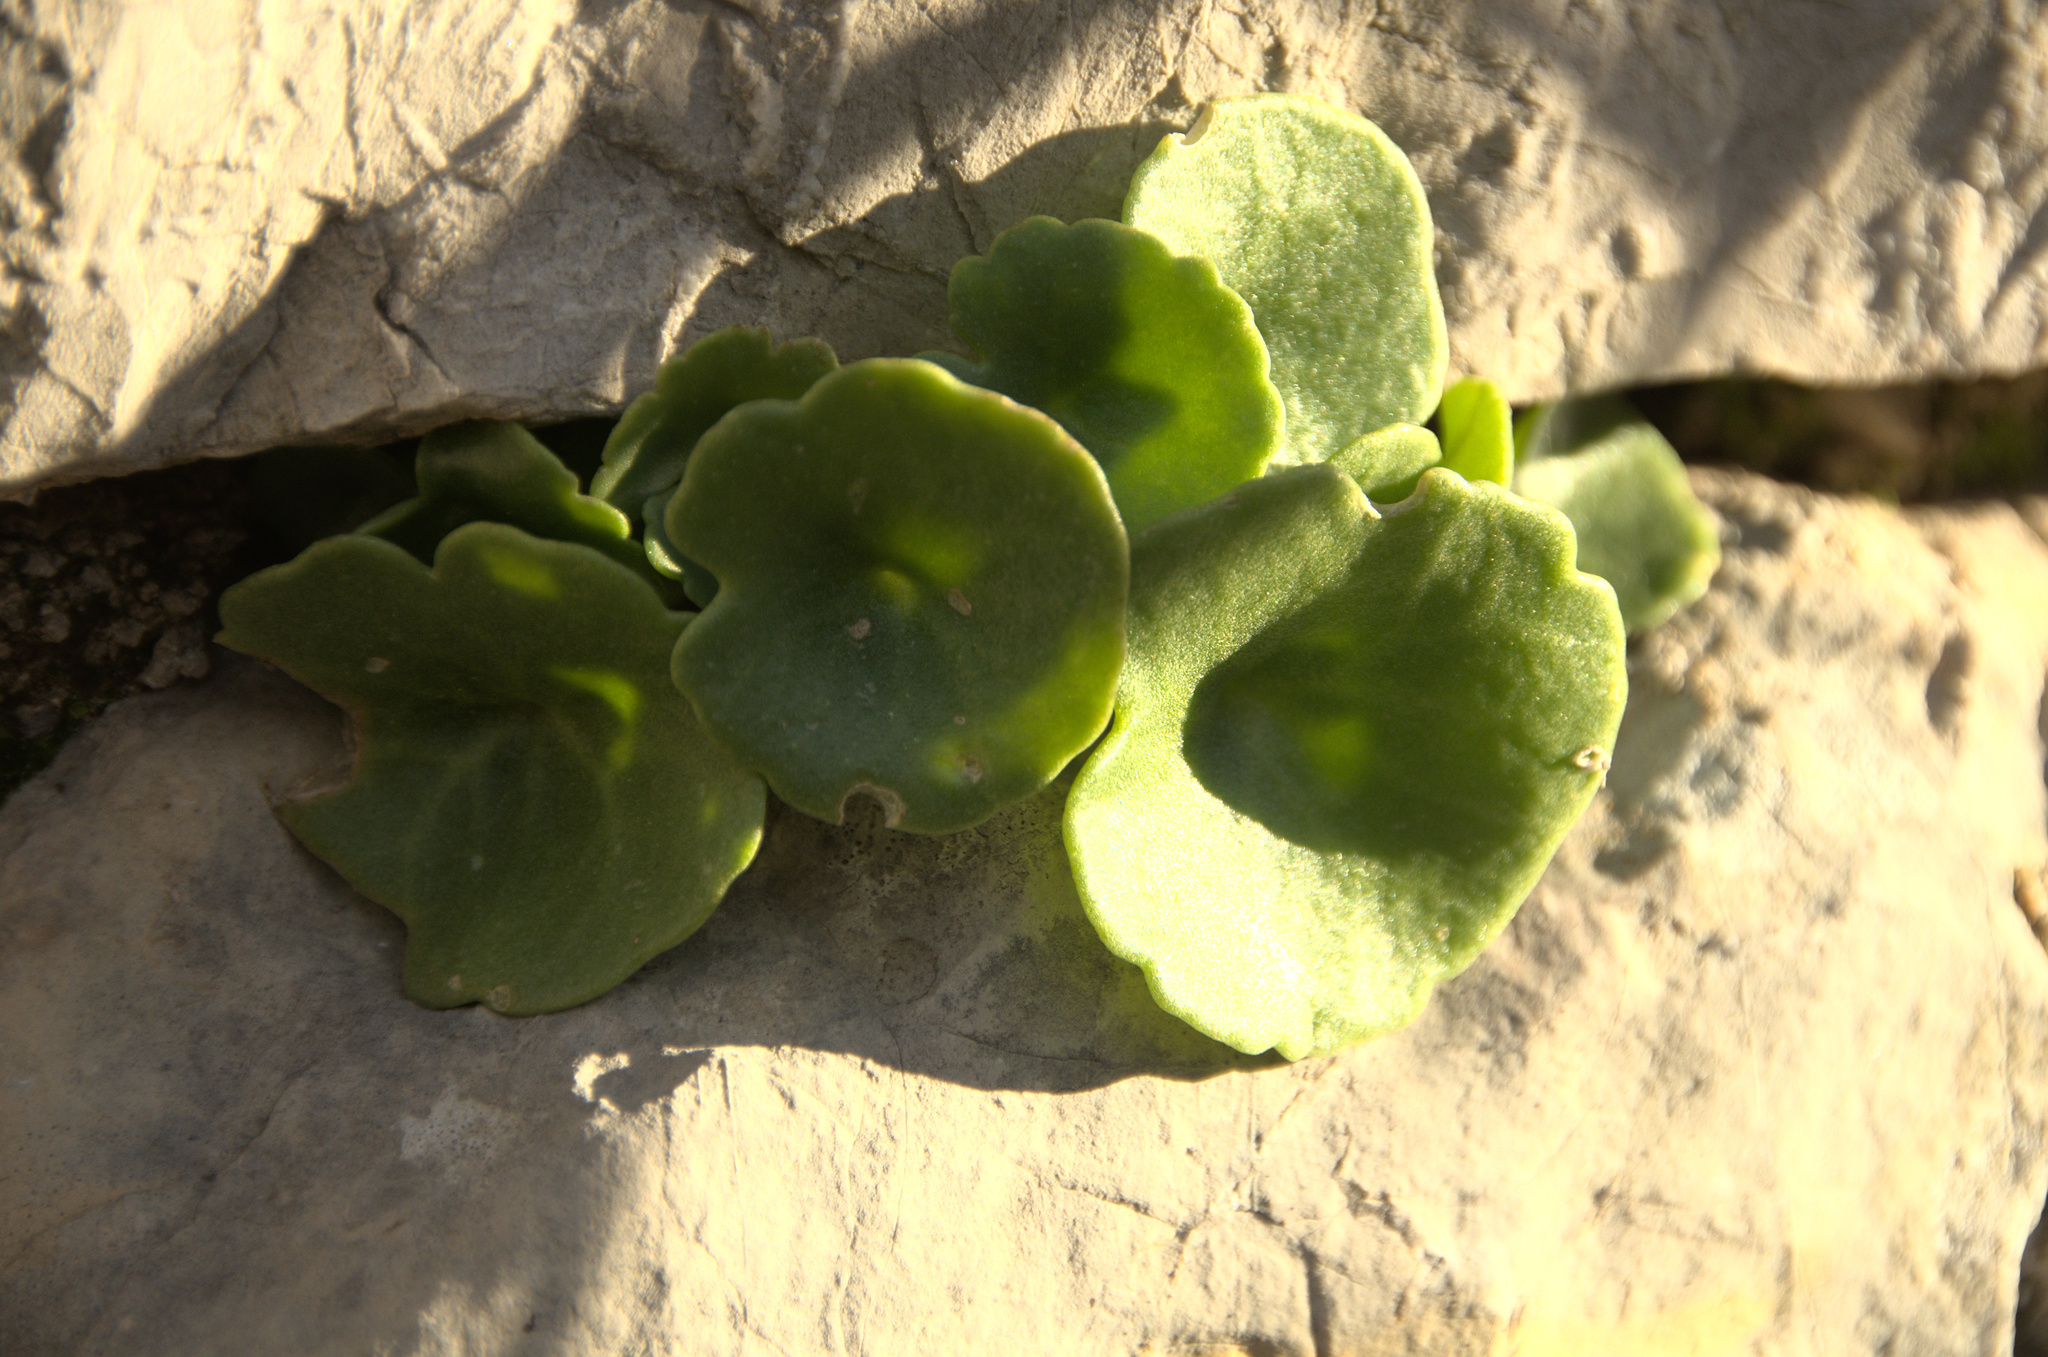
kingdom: Plantae
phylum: Tracheophyta
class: Magnoliopsida
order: Saxifragales
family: Crassulaceae
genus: Umbilicus
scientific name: Umbilicus rupestris
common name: Navelwort
